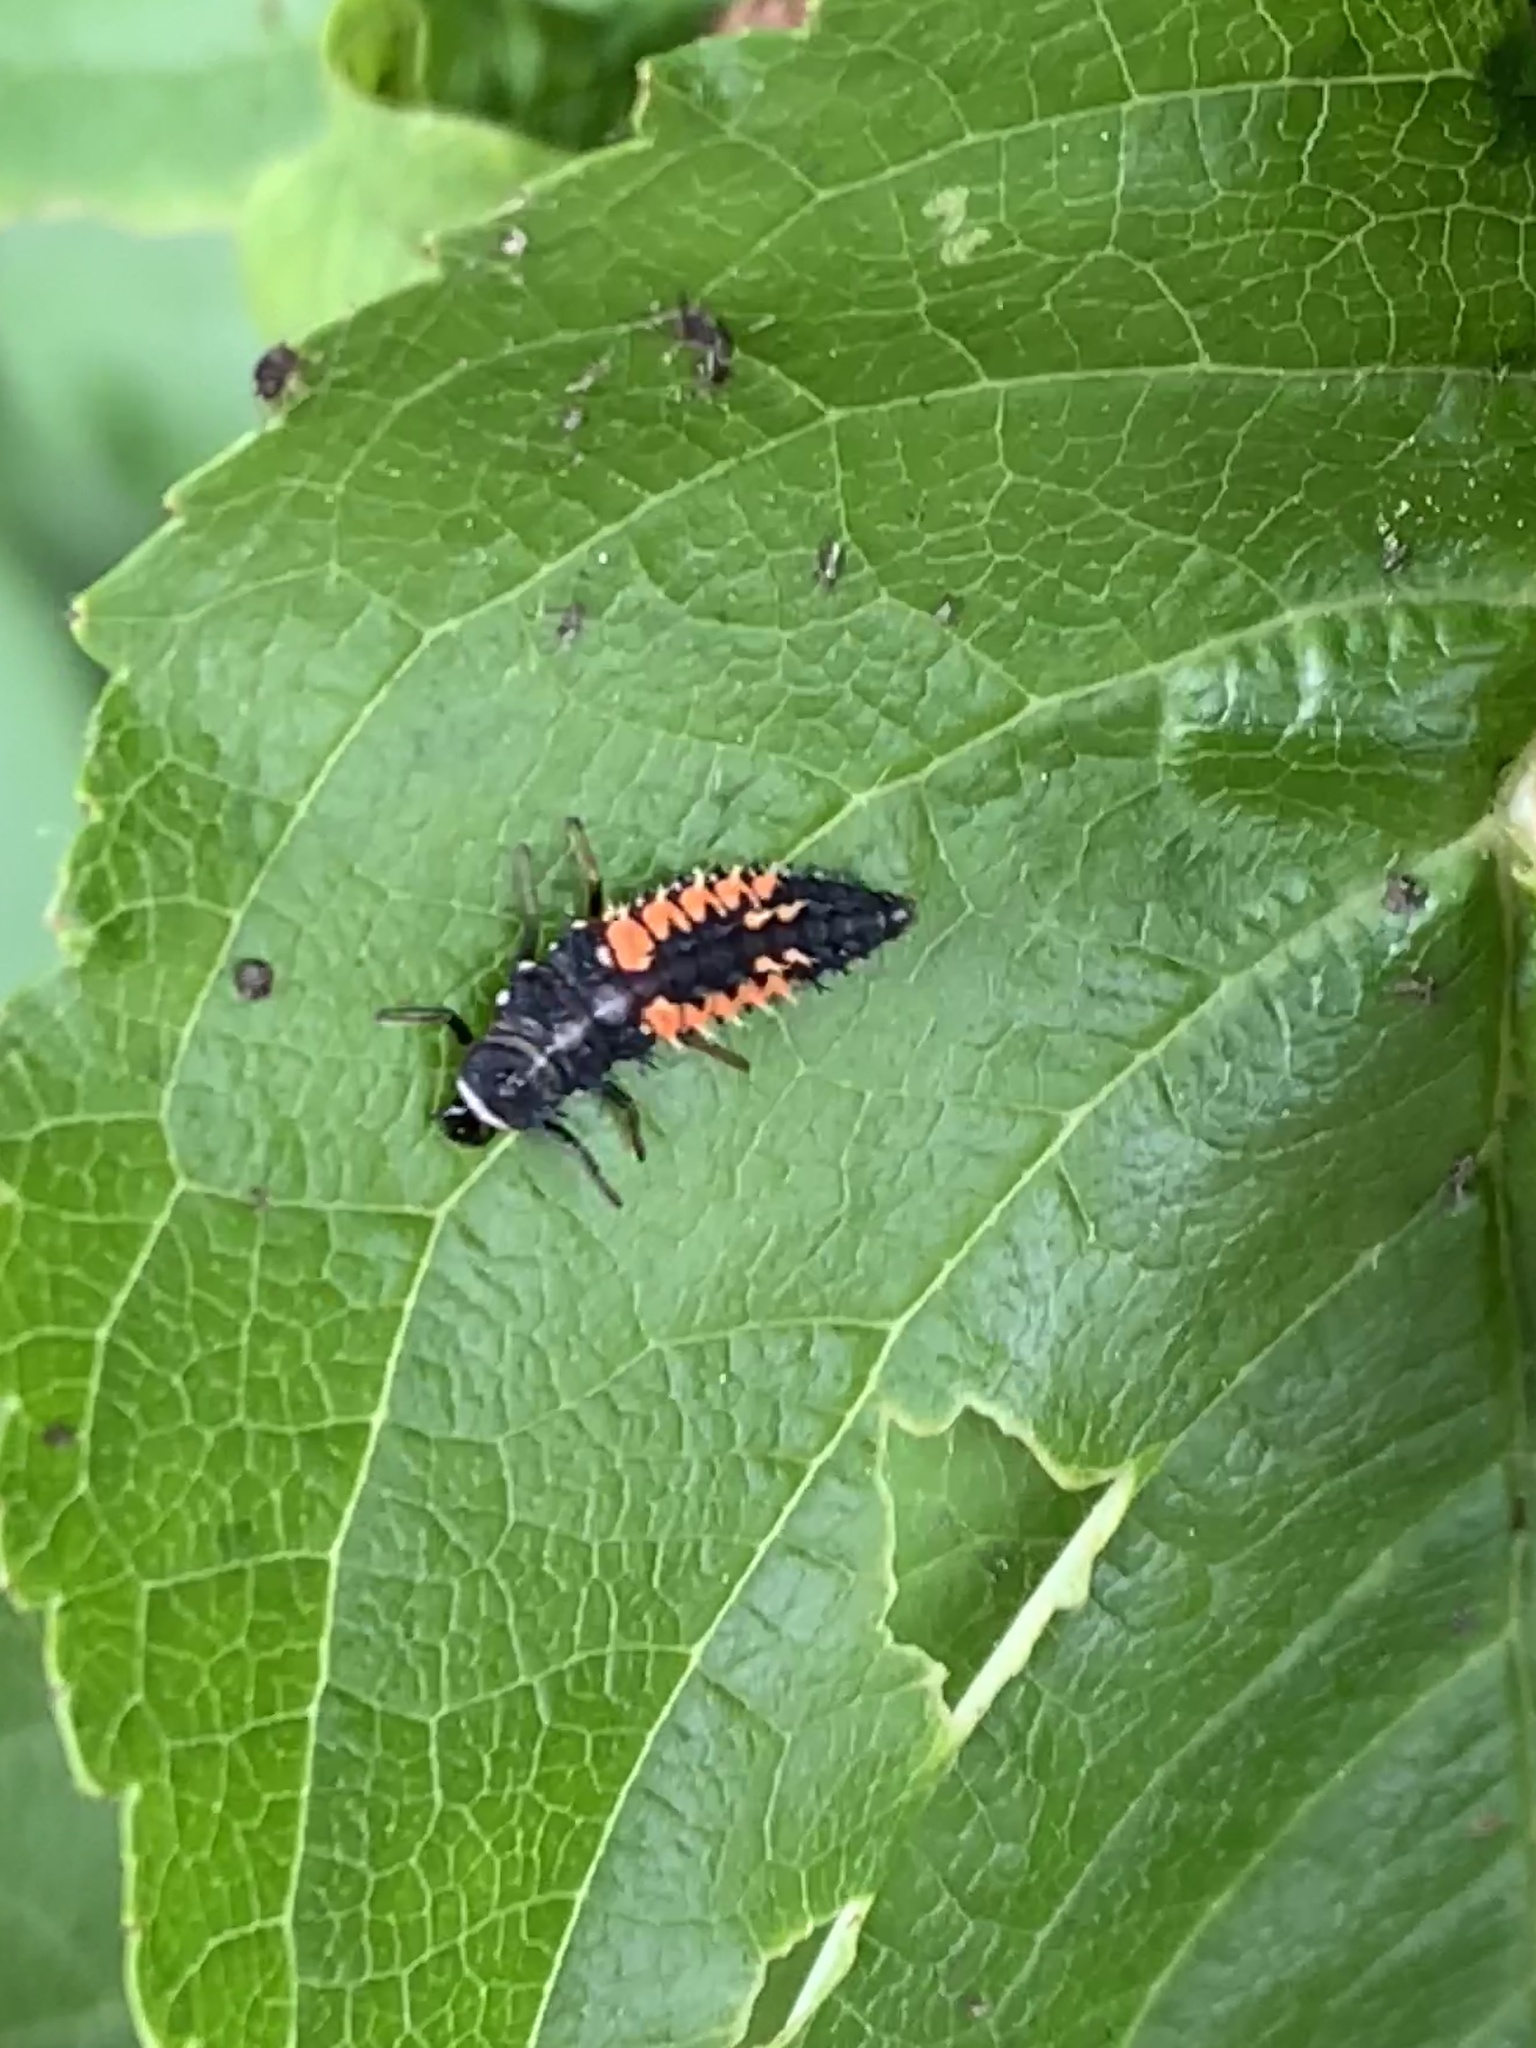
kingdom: Animalia
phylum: Arthropoda
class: Insecta
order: Coleoptera
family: Coccinellidae
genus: Harmonia
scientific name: Harmonia axyridis
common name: Harlequin ladybird
